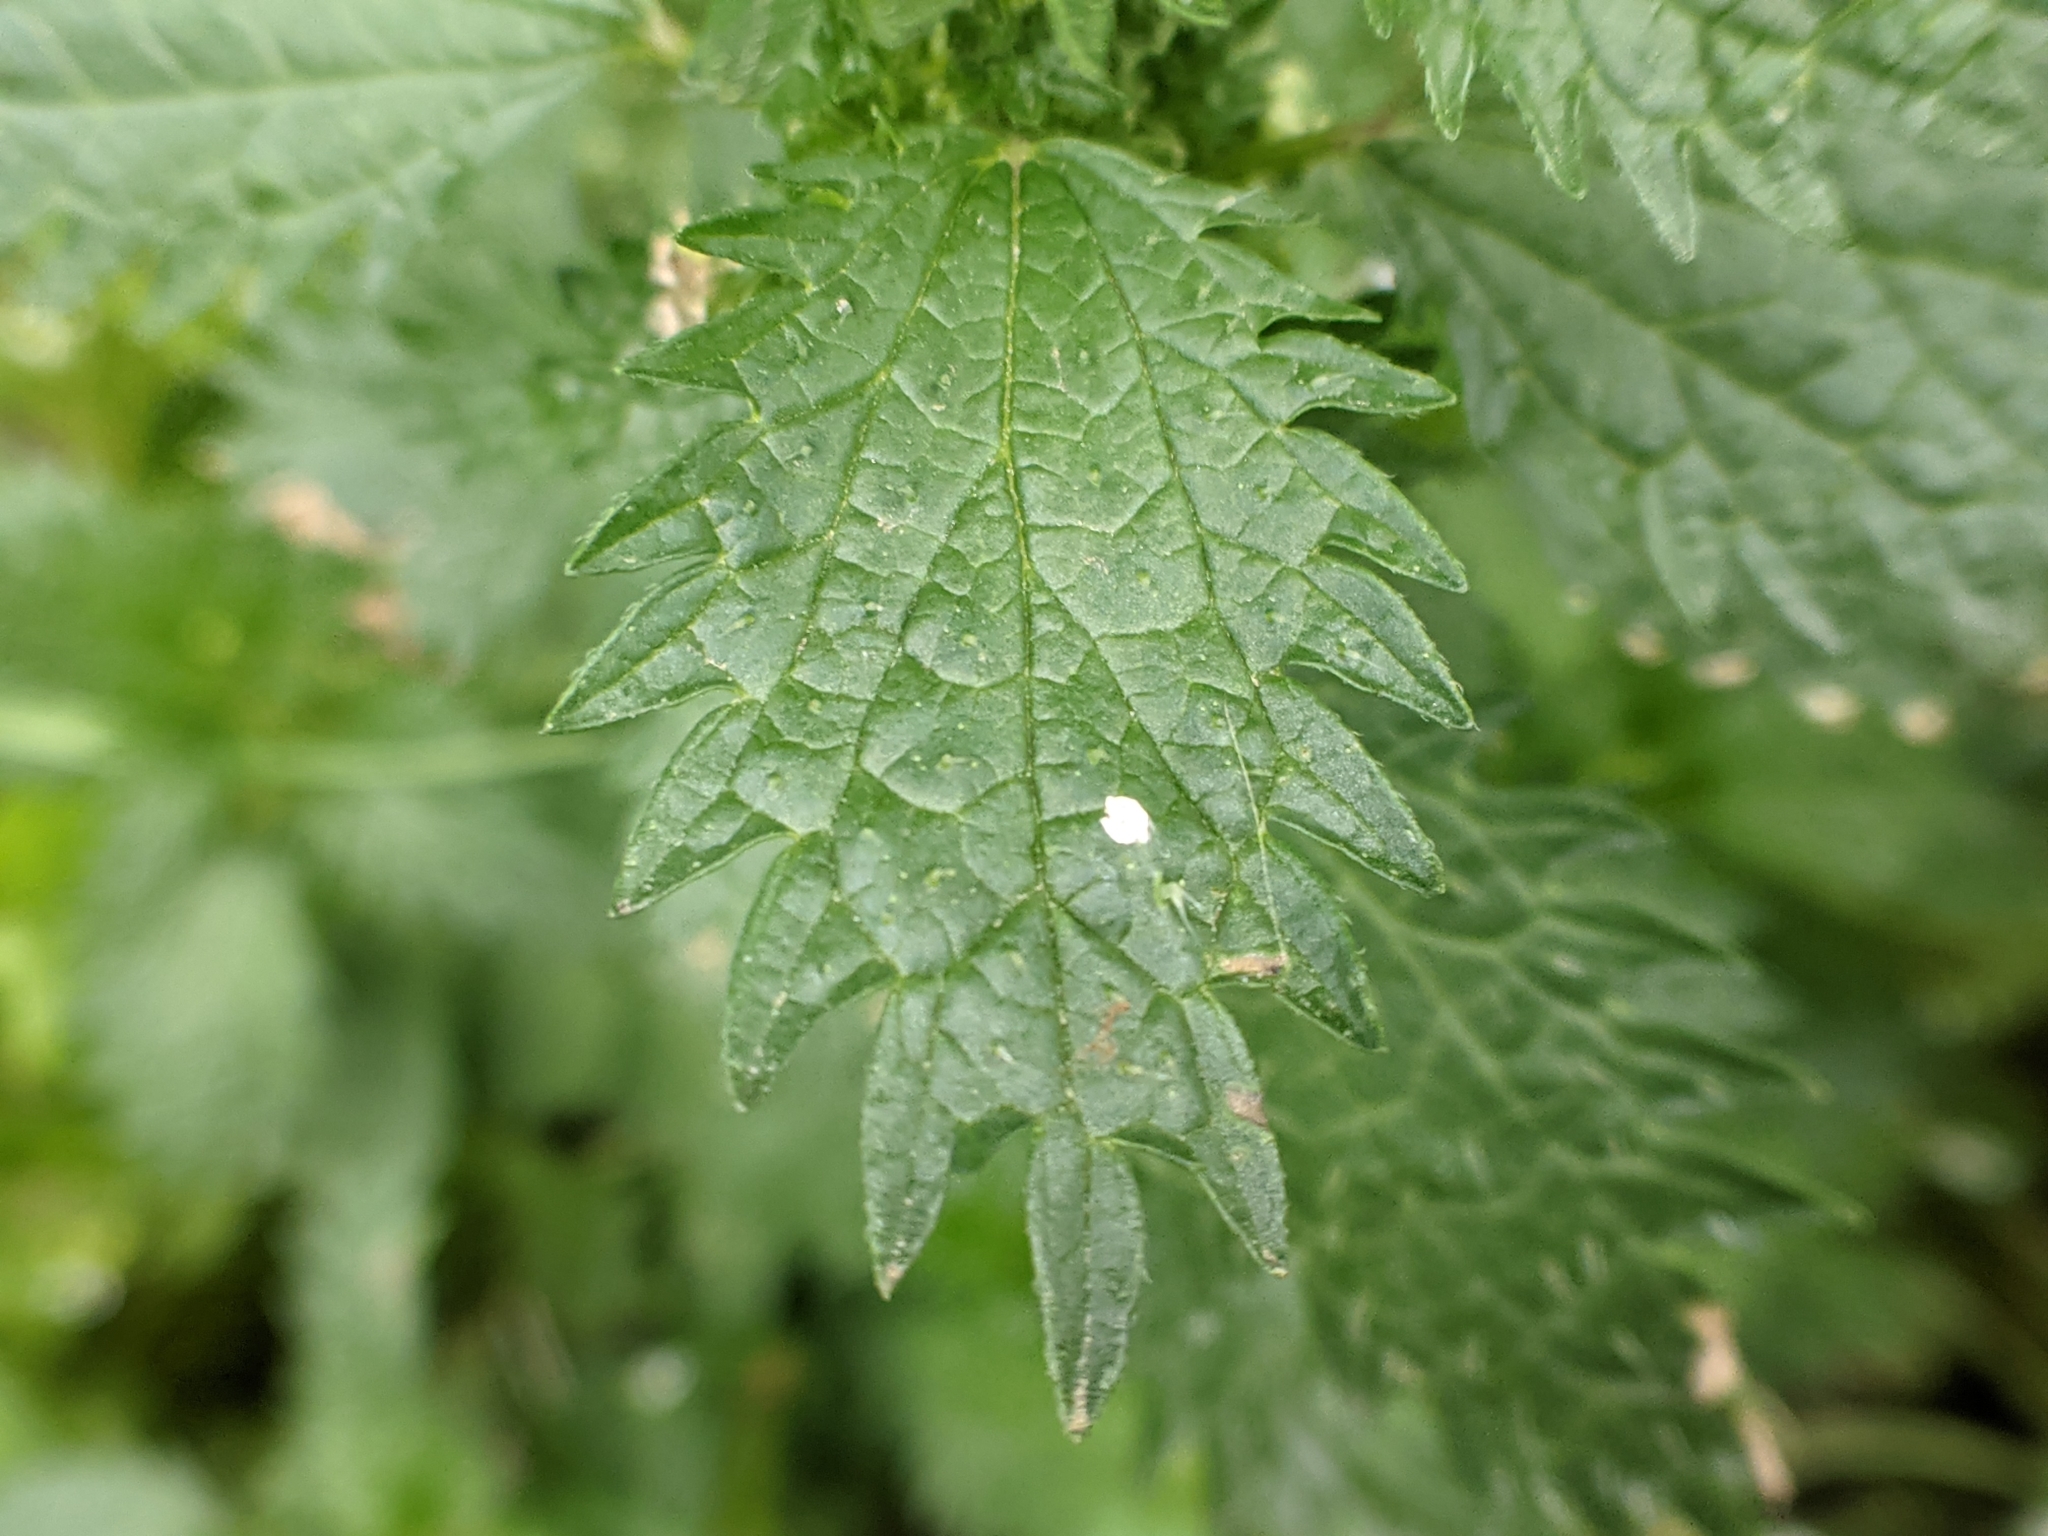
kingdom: Plantae
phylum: Tracheophyta
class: Magnoliopsida
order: Rosales
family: Urticaceae
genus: Urtica
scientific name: Urtica urens
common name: Dwarf nettle
